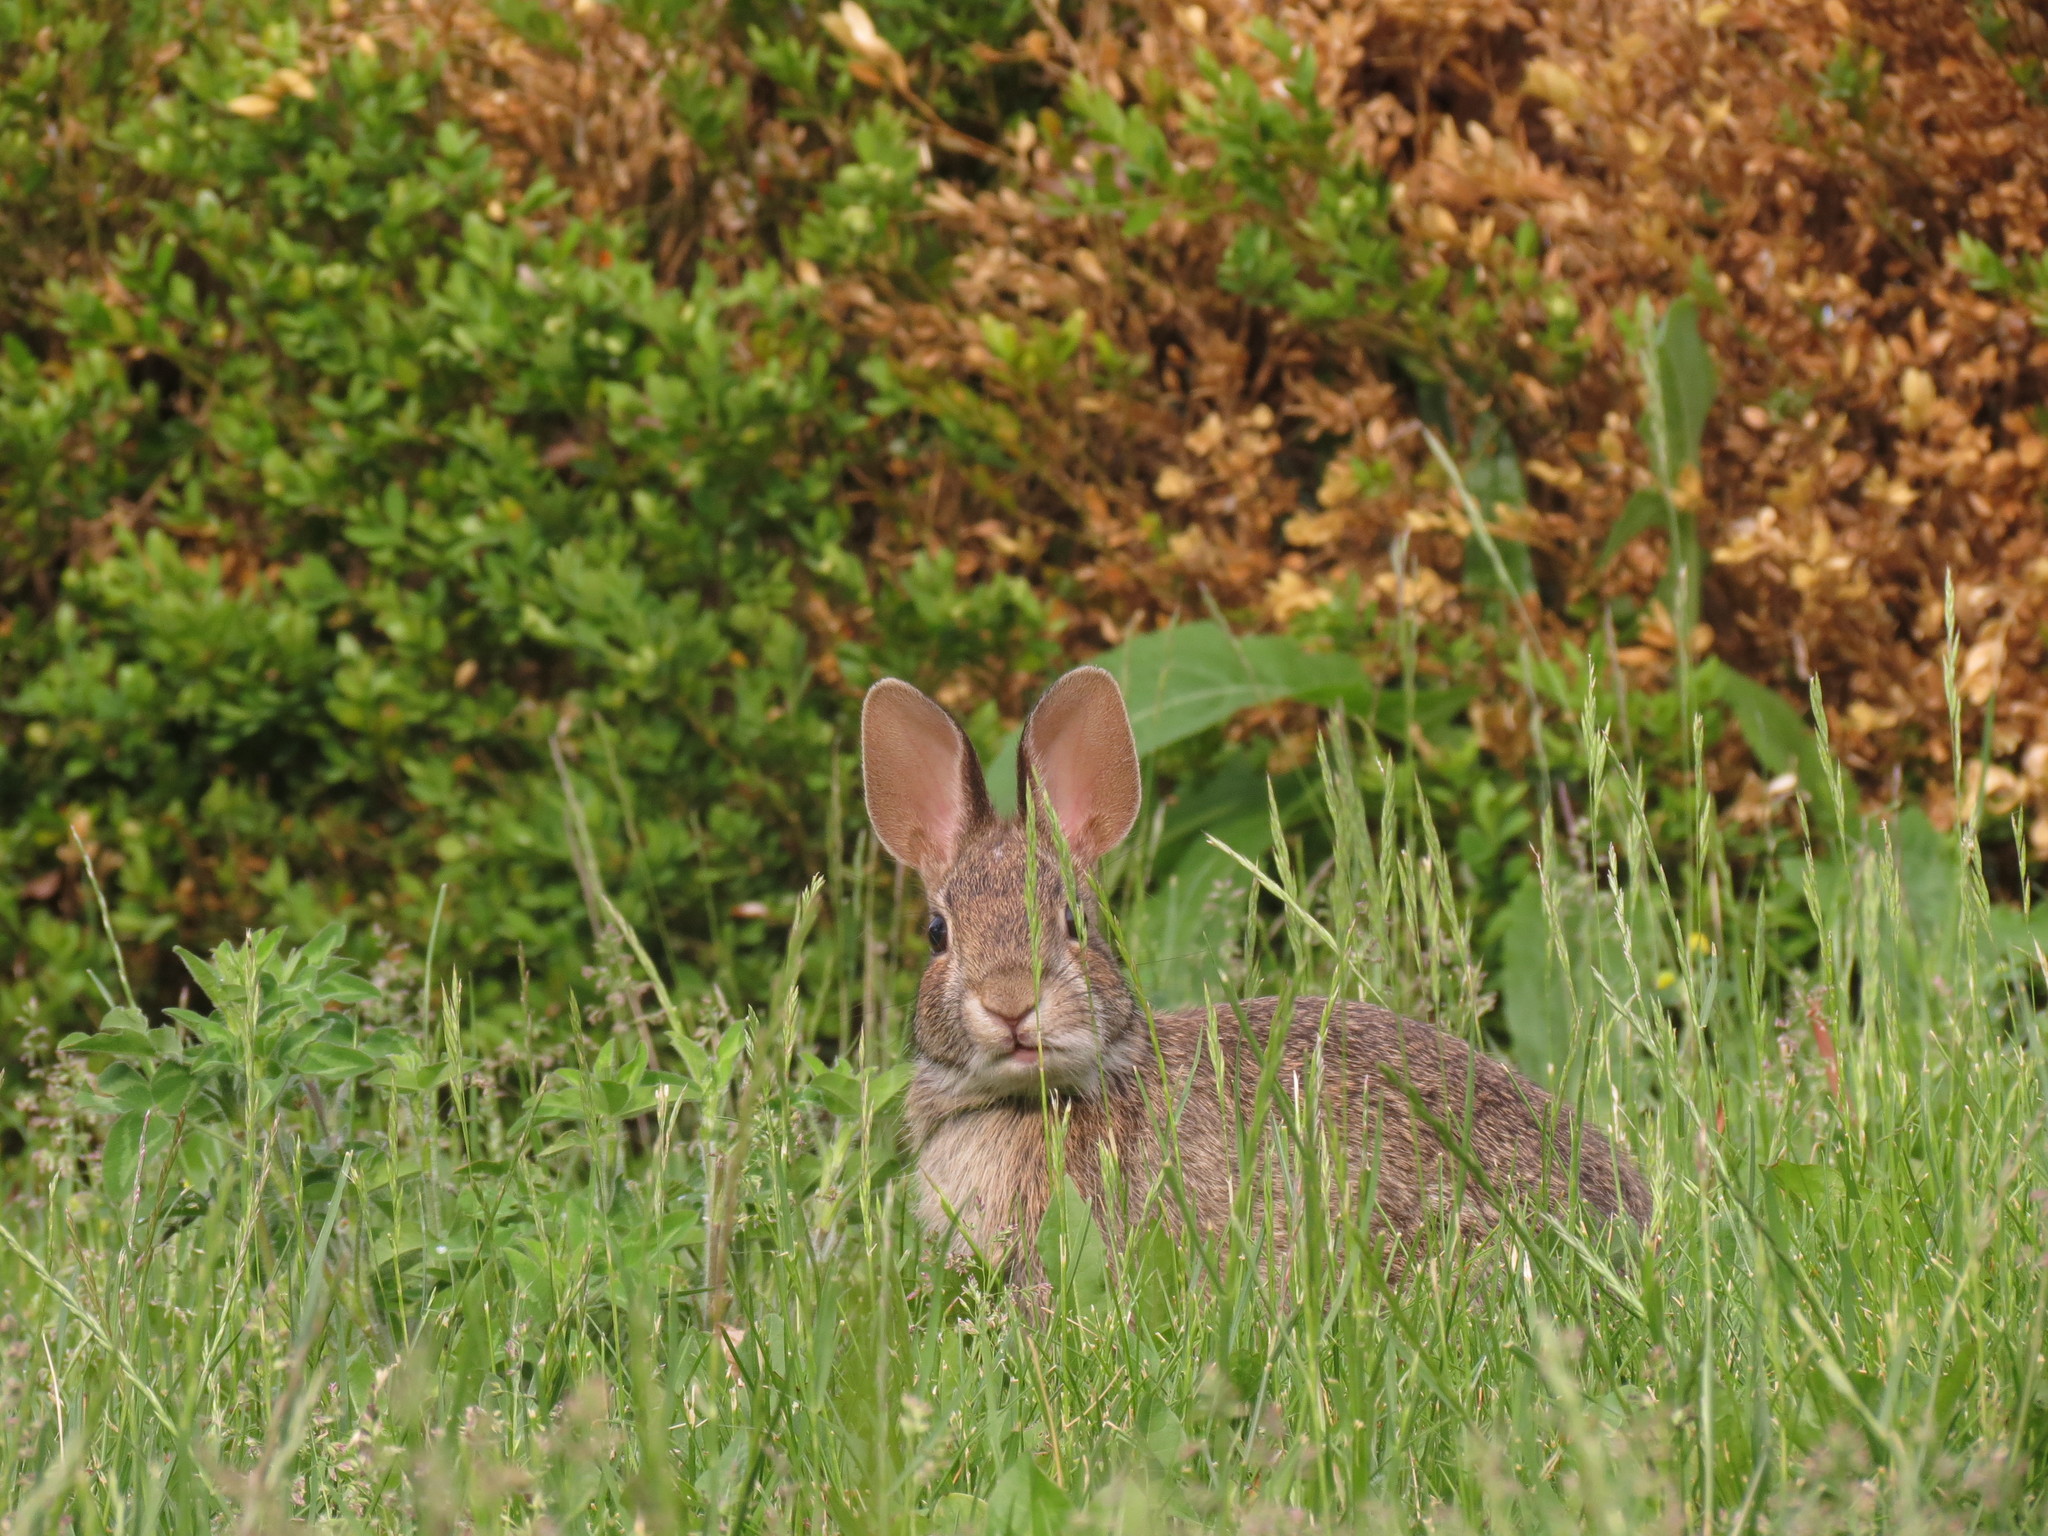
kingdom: Animalia
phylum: Chordata
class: Mammalia
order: Lagomorpha
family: Leporidae
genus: Sylvilagus
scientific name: Sylvilagus floridanus
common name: Eastern cottontail
